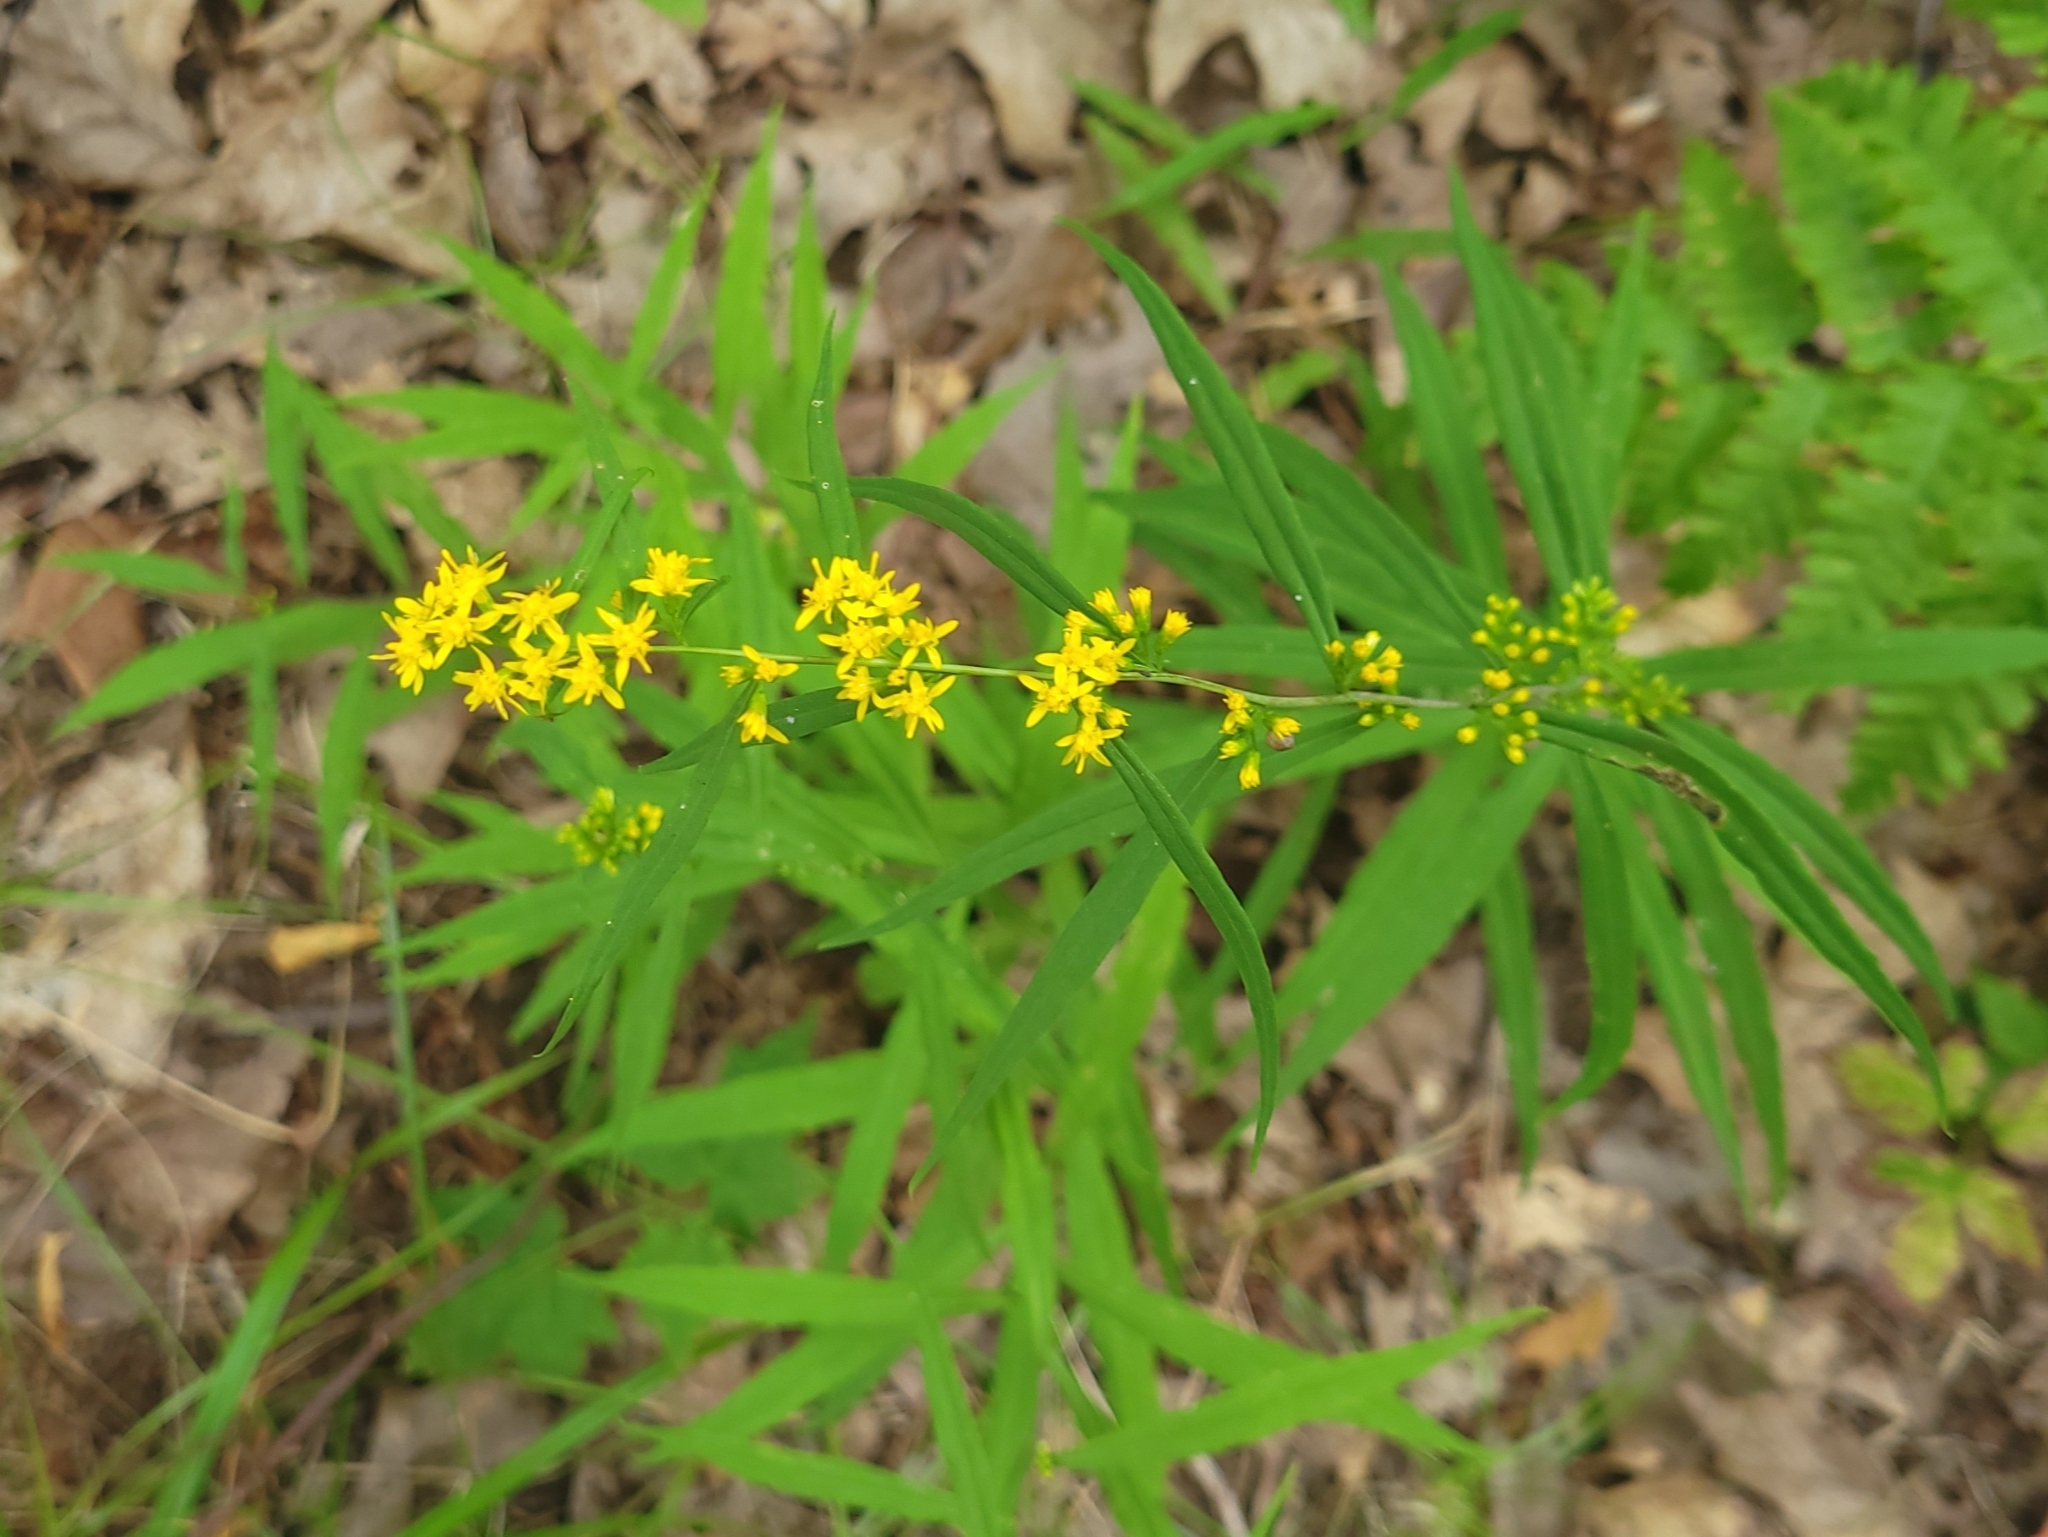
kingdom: Plantae
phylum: Tracheophyta
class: Magnoliopsida
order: Asterales
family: Asteraceae
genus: Solidago
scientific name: Solidago caesia
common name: Woodland goldenrod
